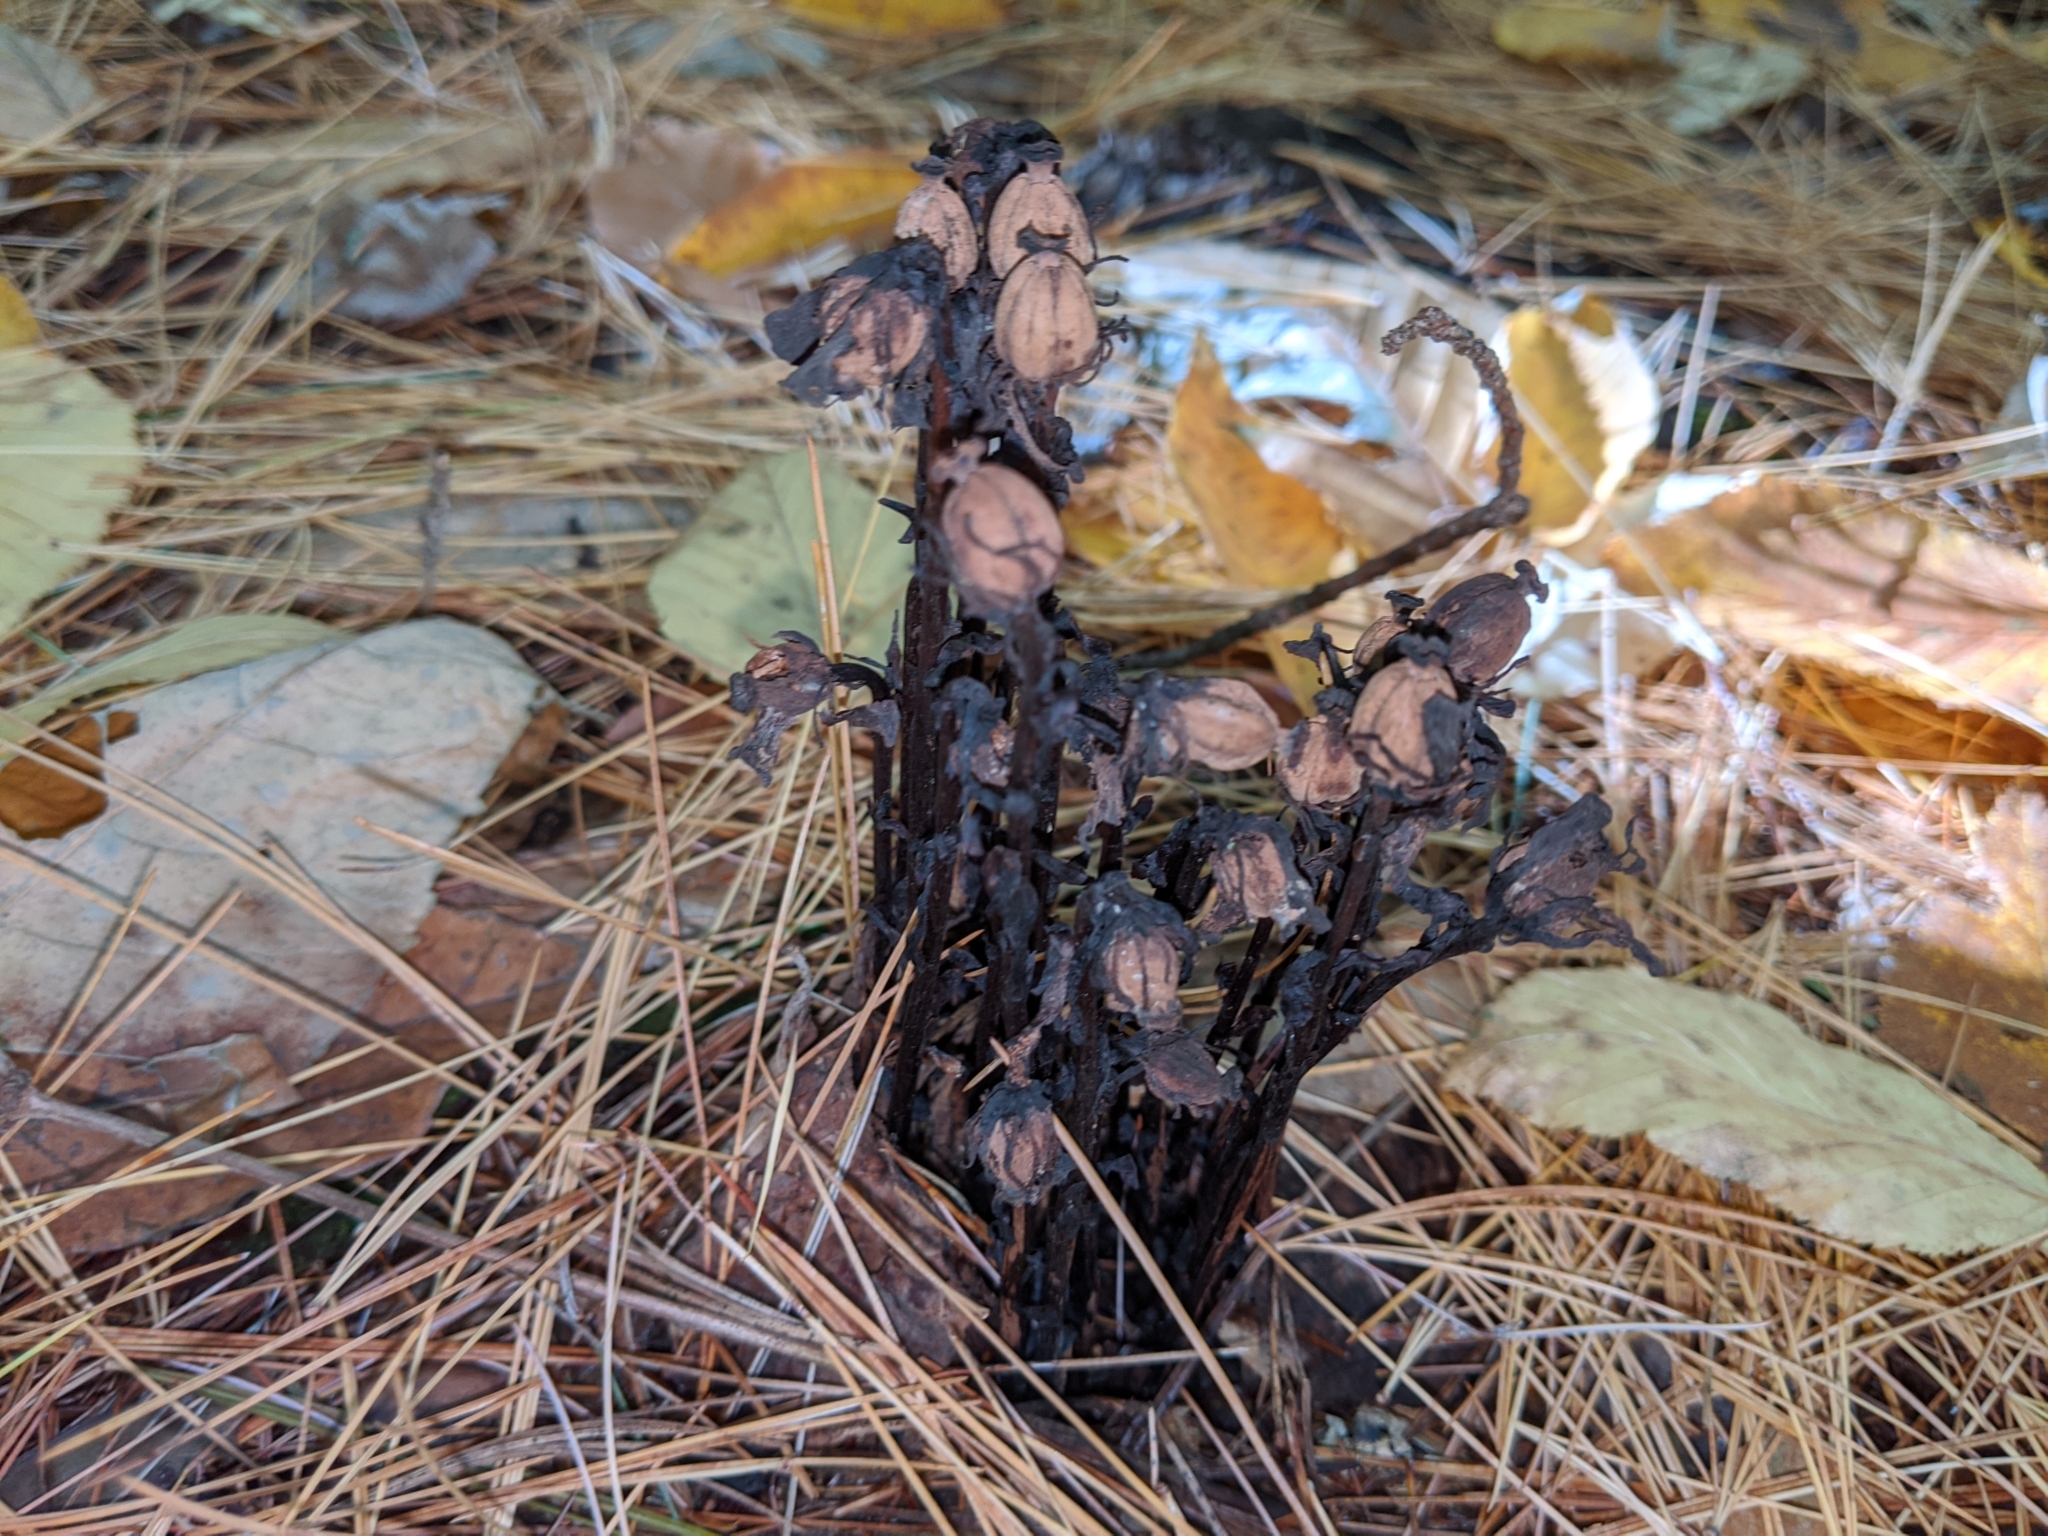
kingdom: Plantae
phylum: Tracheophyta
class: Magnoliopsida
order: Ericales
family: Ericaceae
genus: Monotropa
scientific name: Monotropa uniflora
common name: Convulsion root
